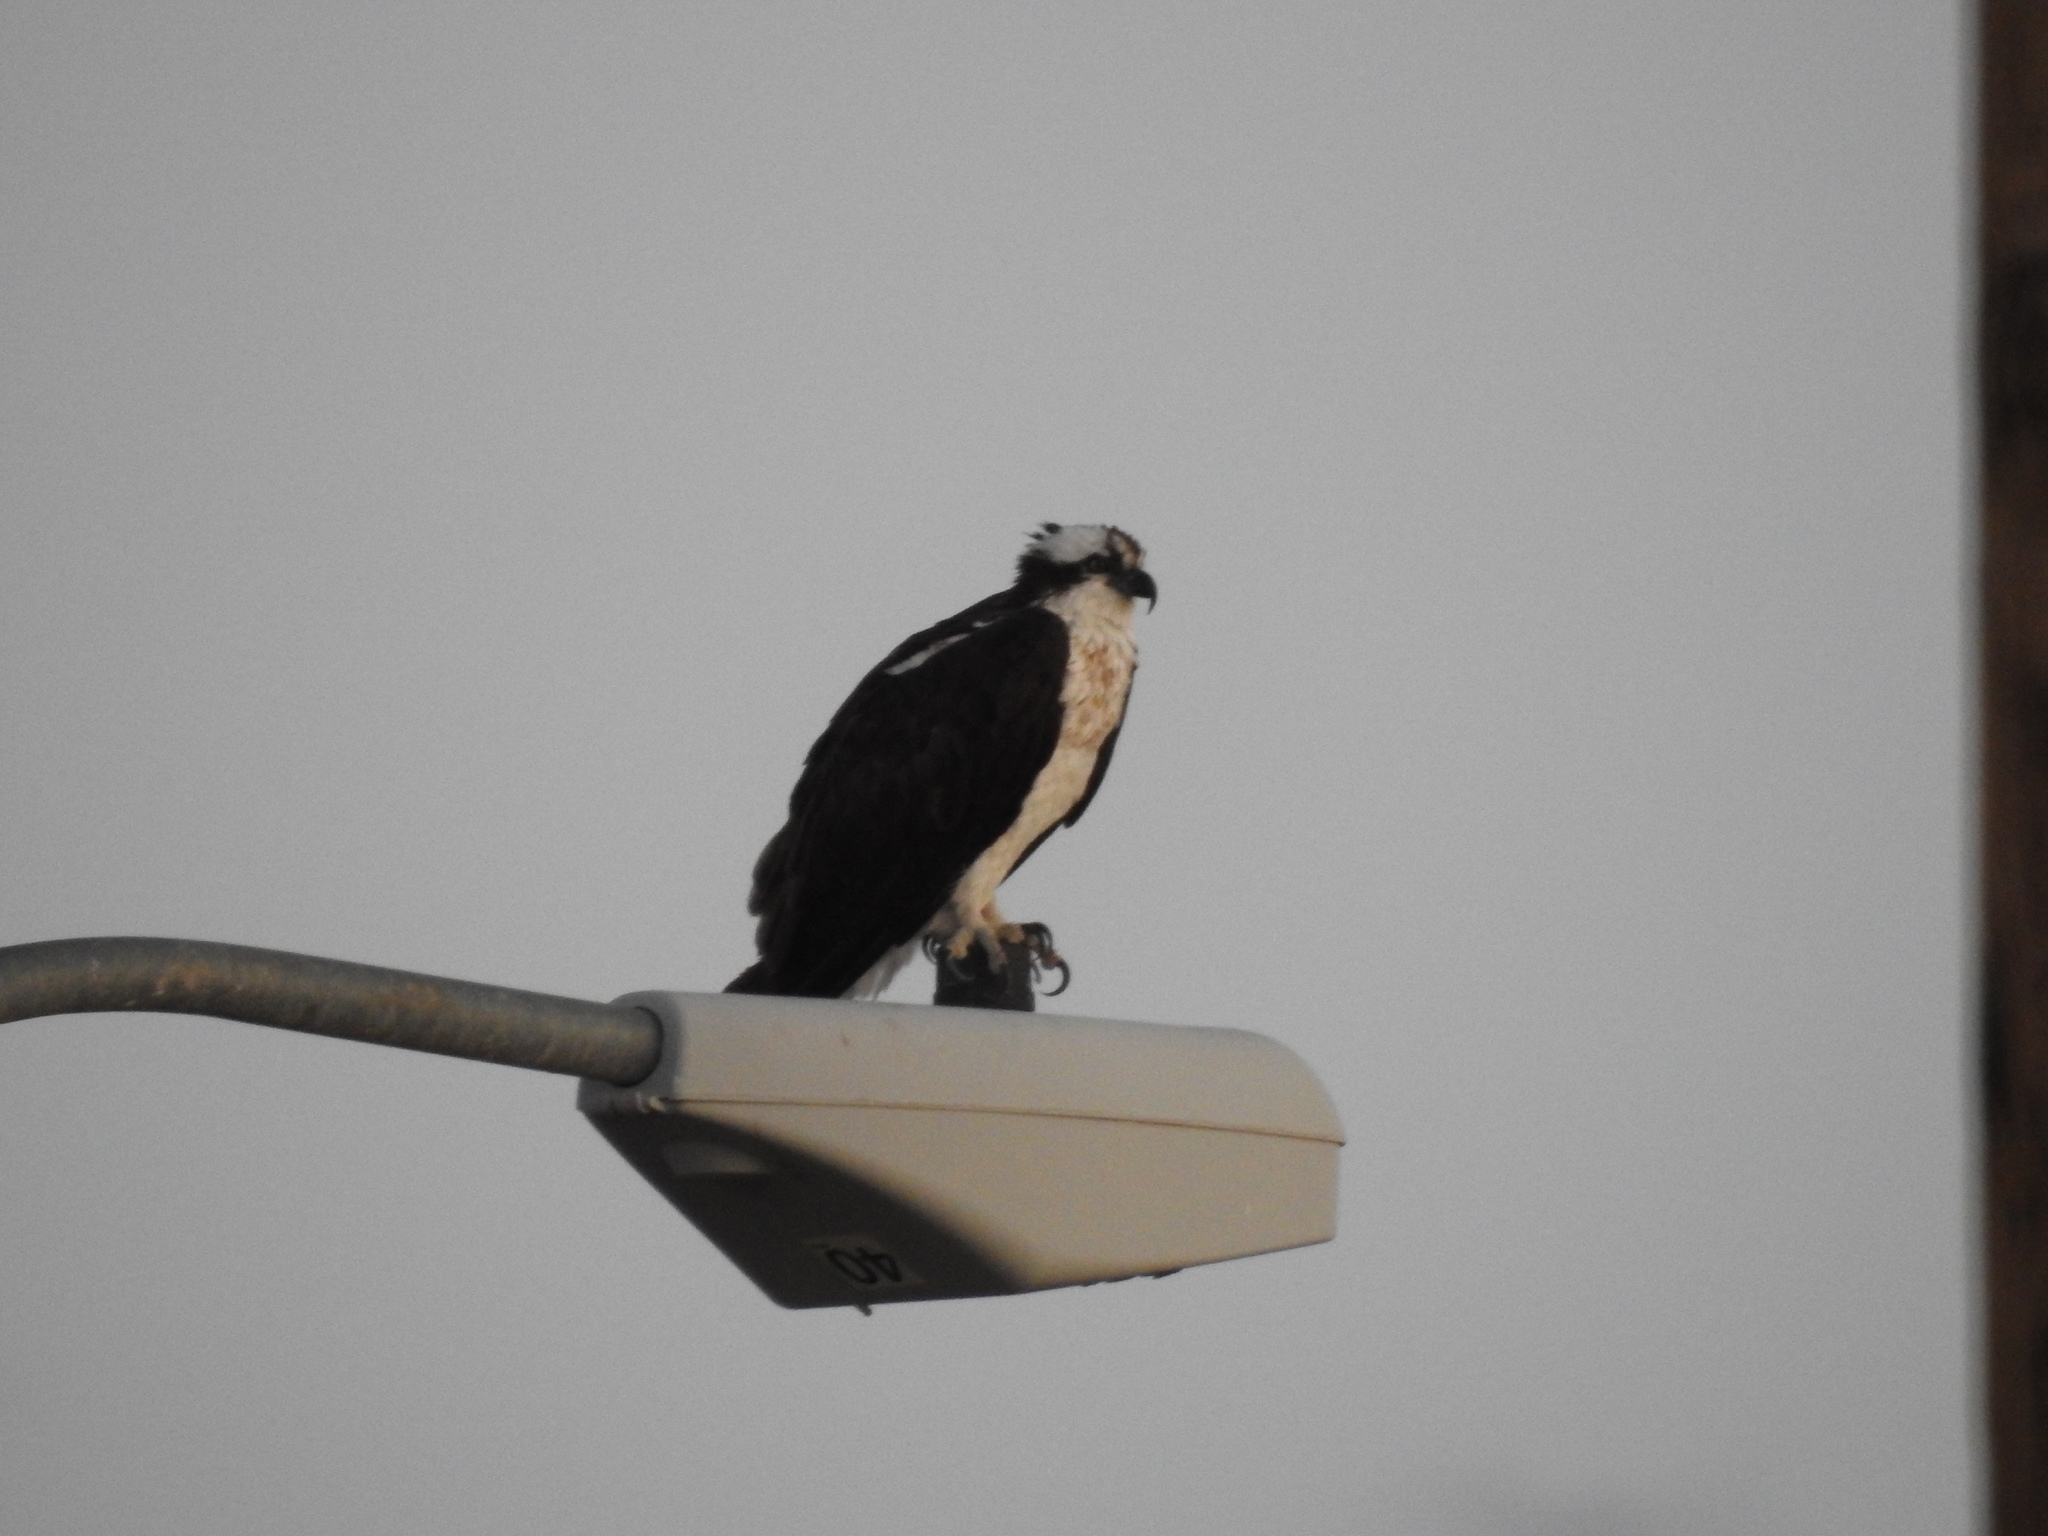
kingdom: Animalia
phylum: Chordata
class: Aves
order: Accipitriformes
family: Pandionidae
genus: Pandion
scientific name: Pandion haliaetus
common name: Osprey
